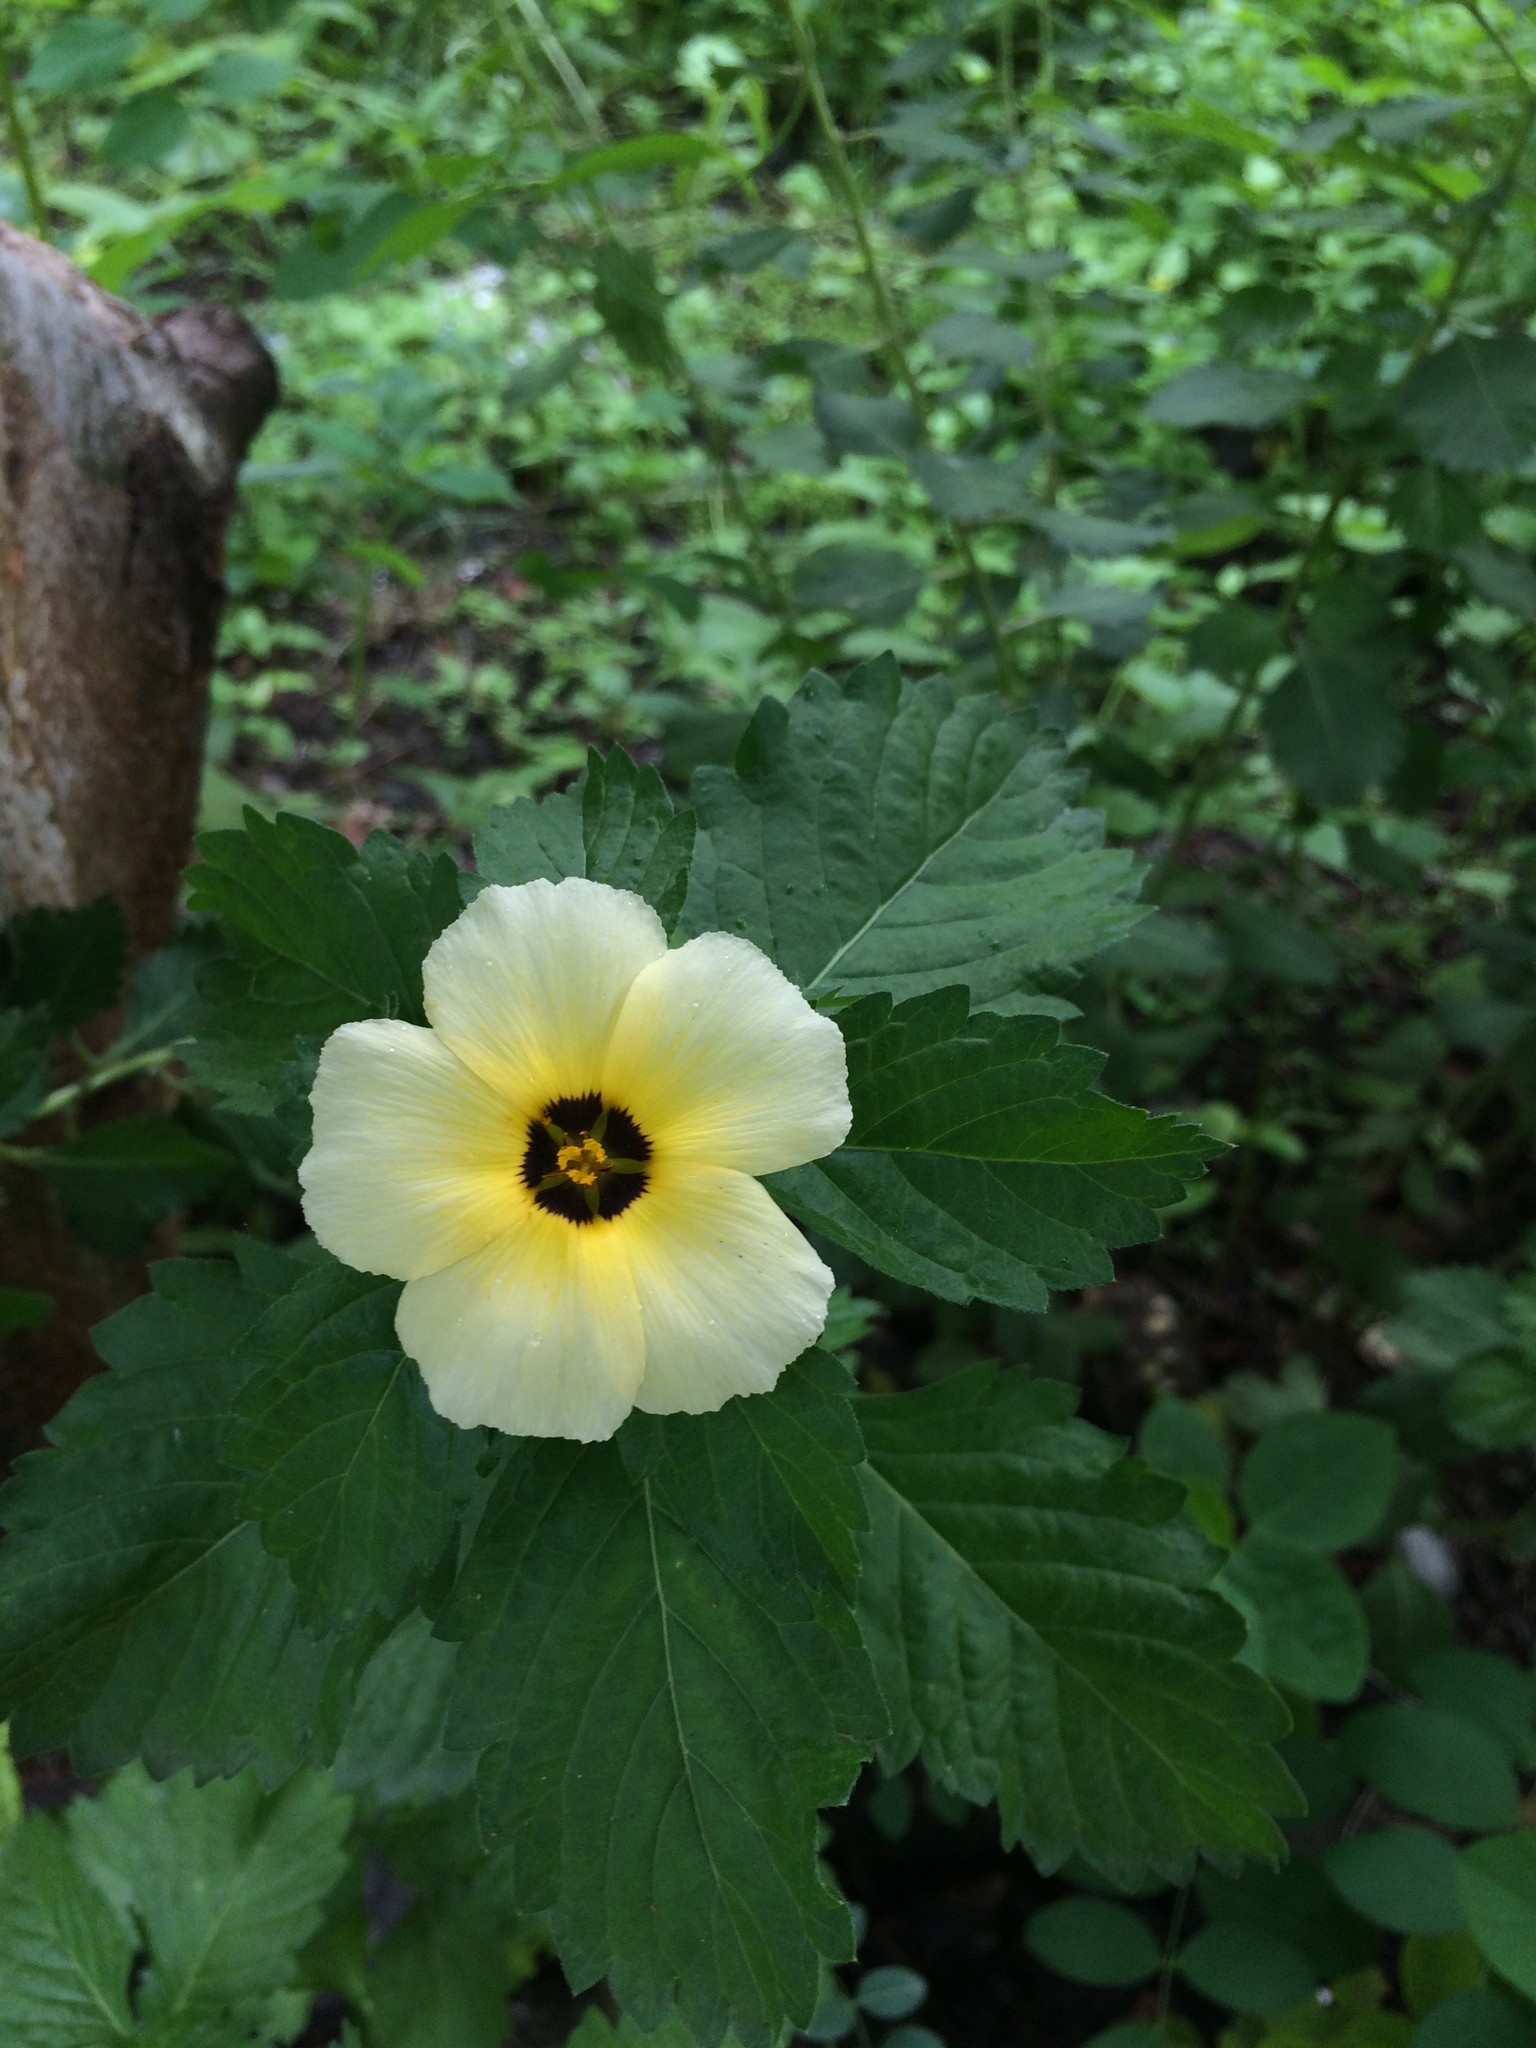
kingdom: Plantae
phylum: Tracheophyta
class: Magnoliopsida
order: Malpighiales
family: Turneraceae
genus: Turnera
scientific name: Turnera subulata
